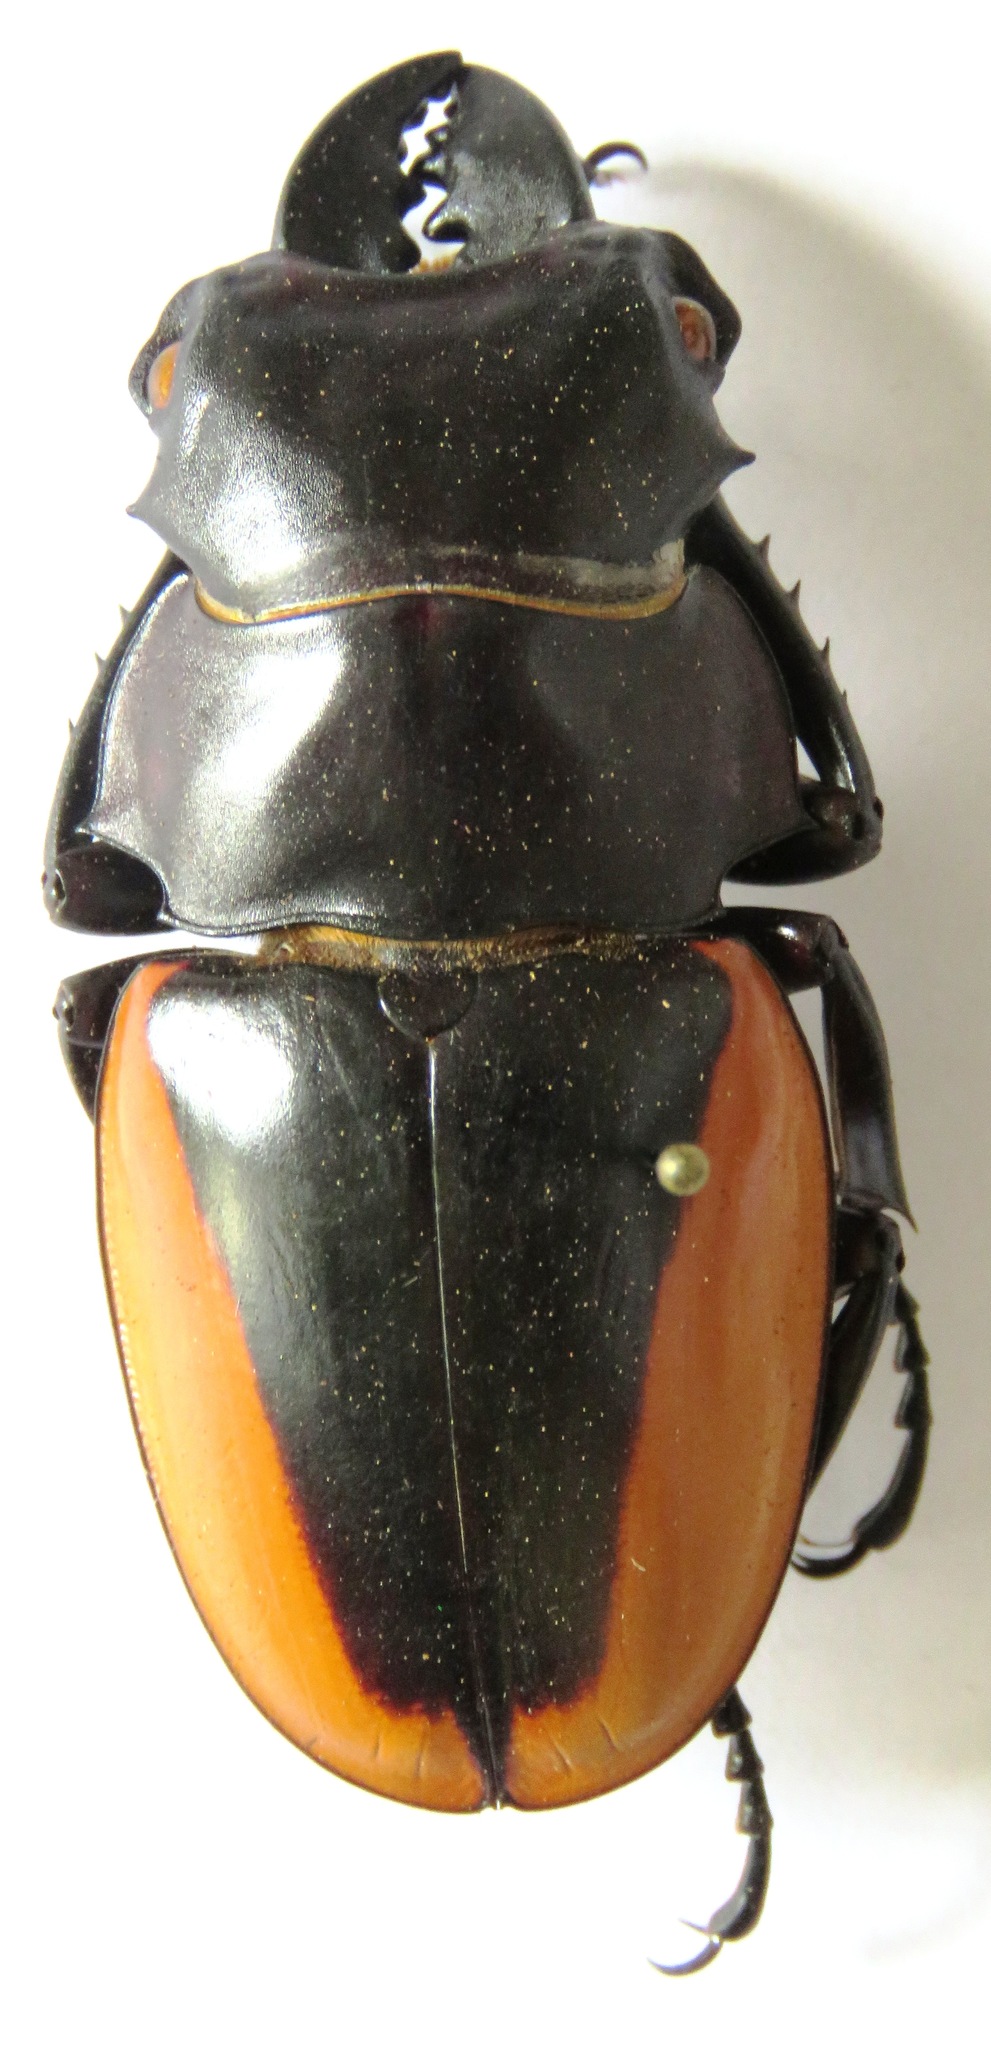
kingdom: Animalia
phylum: Arthropoda
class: Insecta
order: Coleoptera
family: Lucanidae
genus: Odontolabis
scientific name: Odontolabis cuvera
